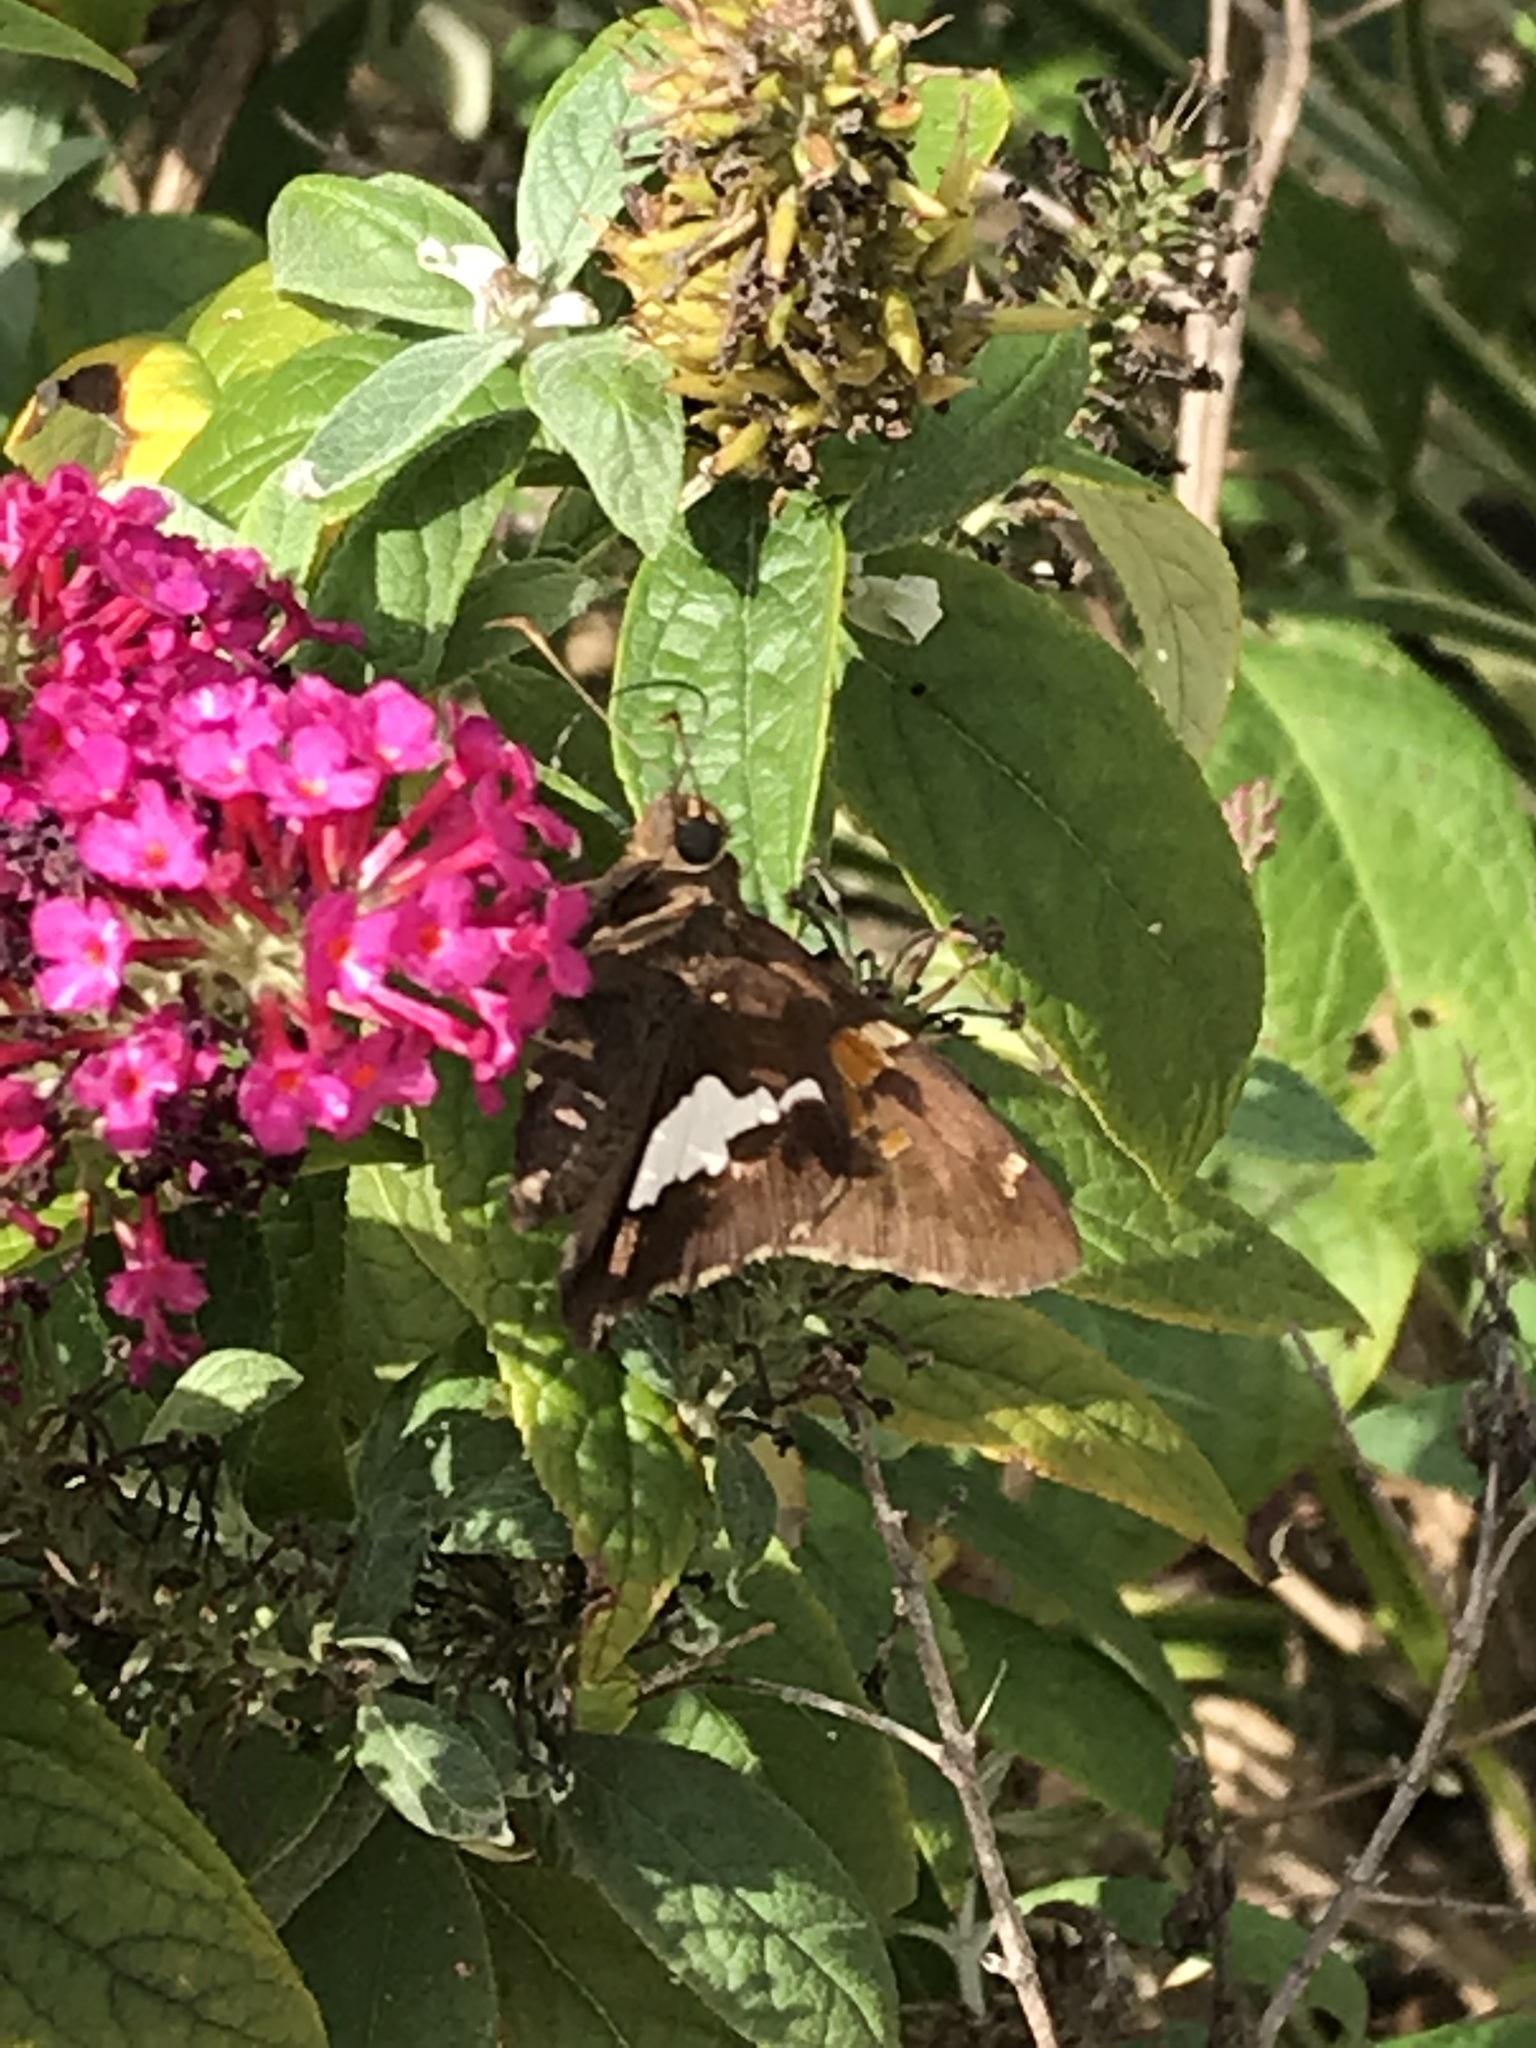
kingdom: Animalia
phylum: Arthropoda
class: Insecta
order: Lepidoptera
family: Hesperiidae
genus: Epargyreus
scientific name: Epargyreus clarus
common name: Silver-spotted skipper
